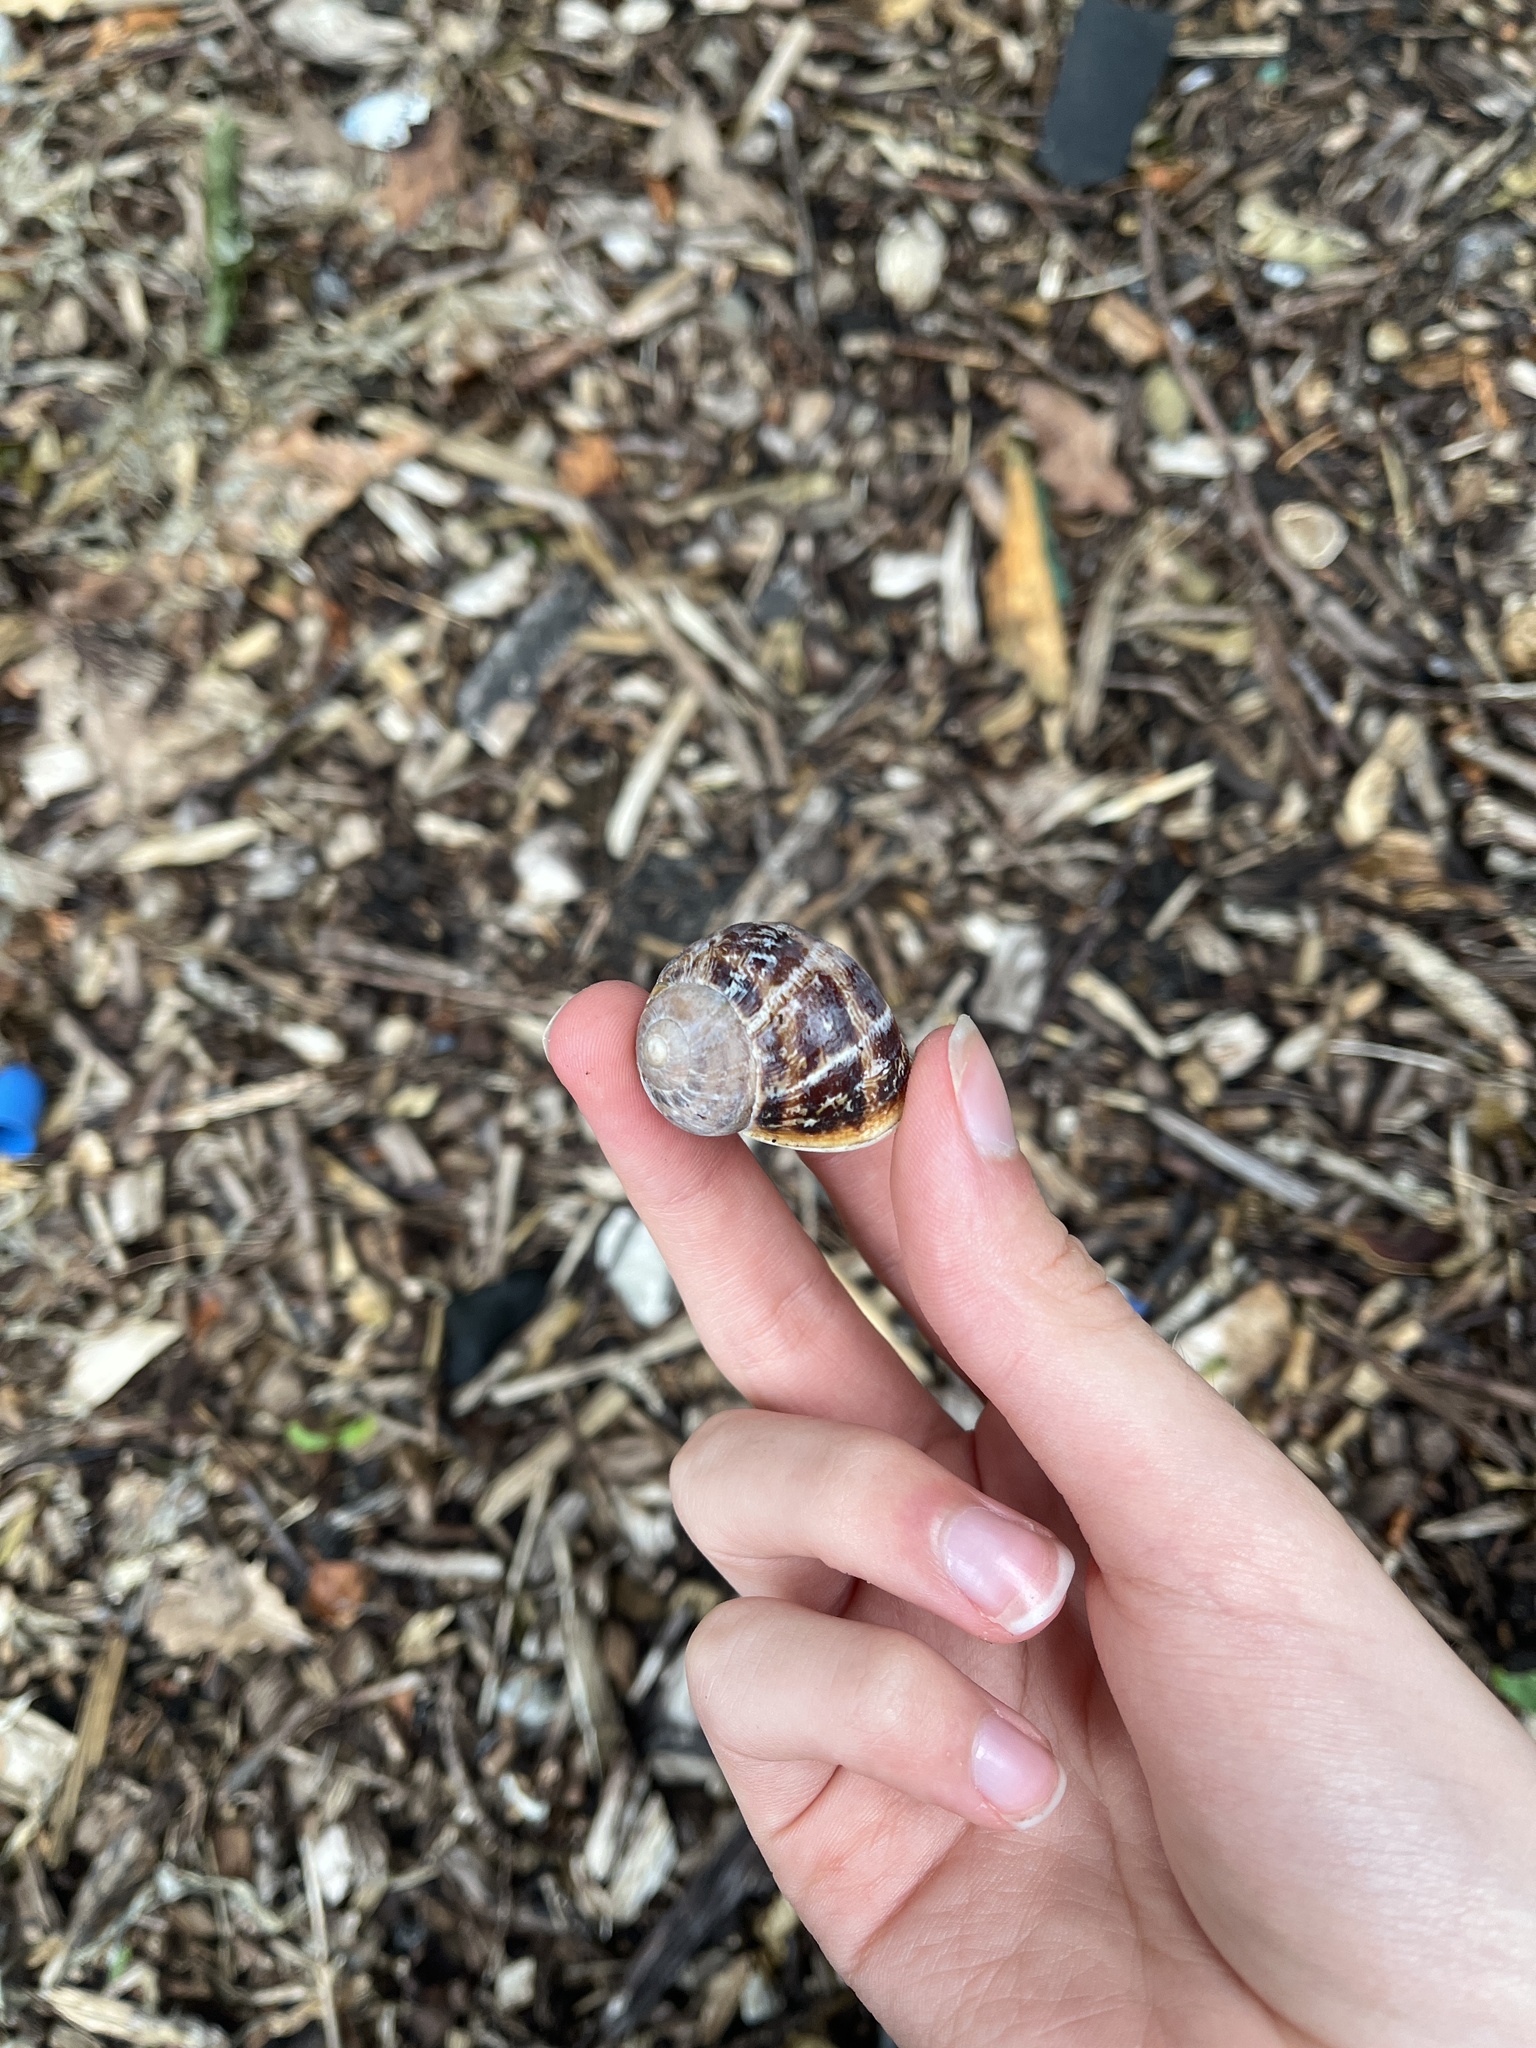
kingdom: Animalia
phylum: Mollusca
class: Gastropoda
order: Stylommatophora
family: Helicidae
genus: Cornu
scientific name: Cornu aspersum
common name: Brown garden snail
